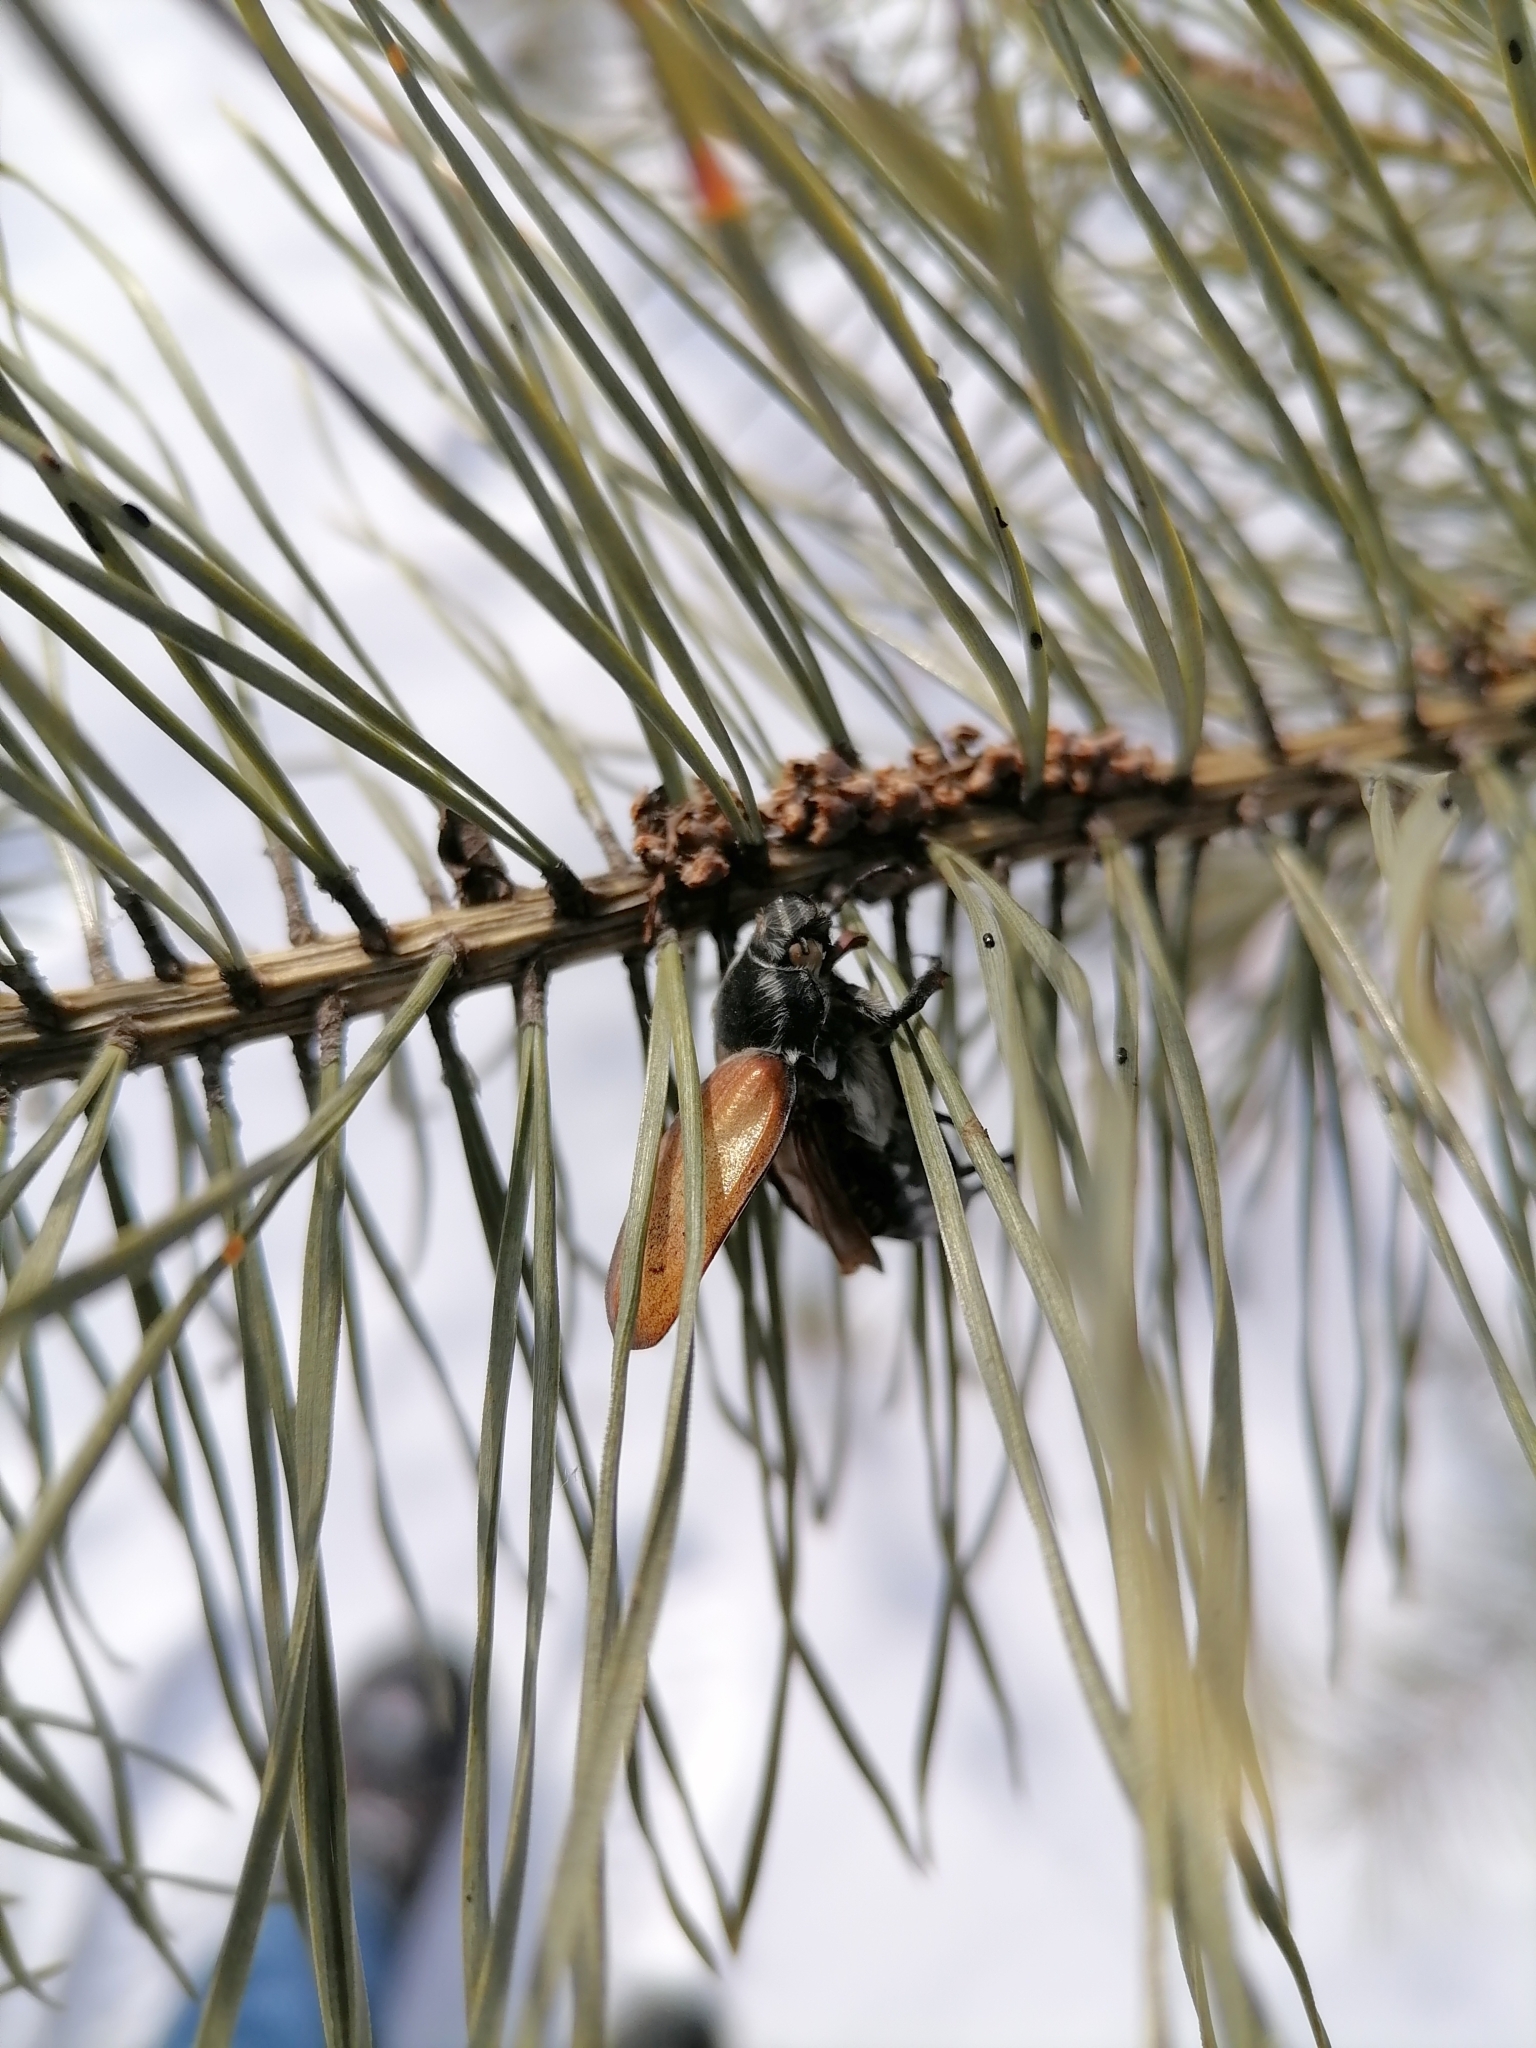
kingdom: Animalia
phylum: Arthropoda
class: Insecta
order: Coleoptera
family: Scarabaeidae
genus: Melolontha
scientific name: Melolontha hippocastani
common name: Chestnut cockchafer
